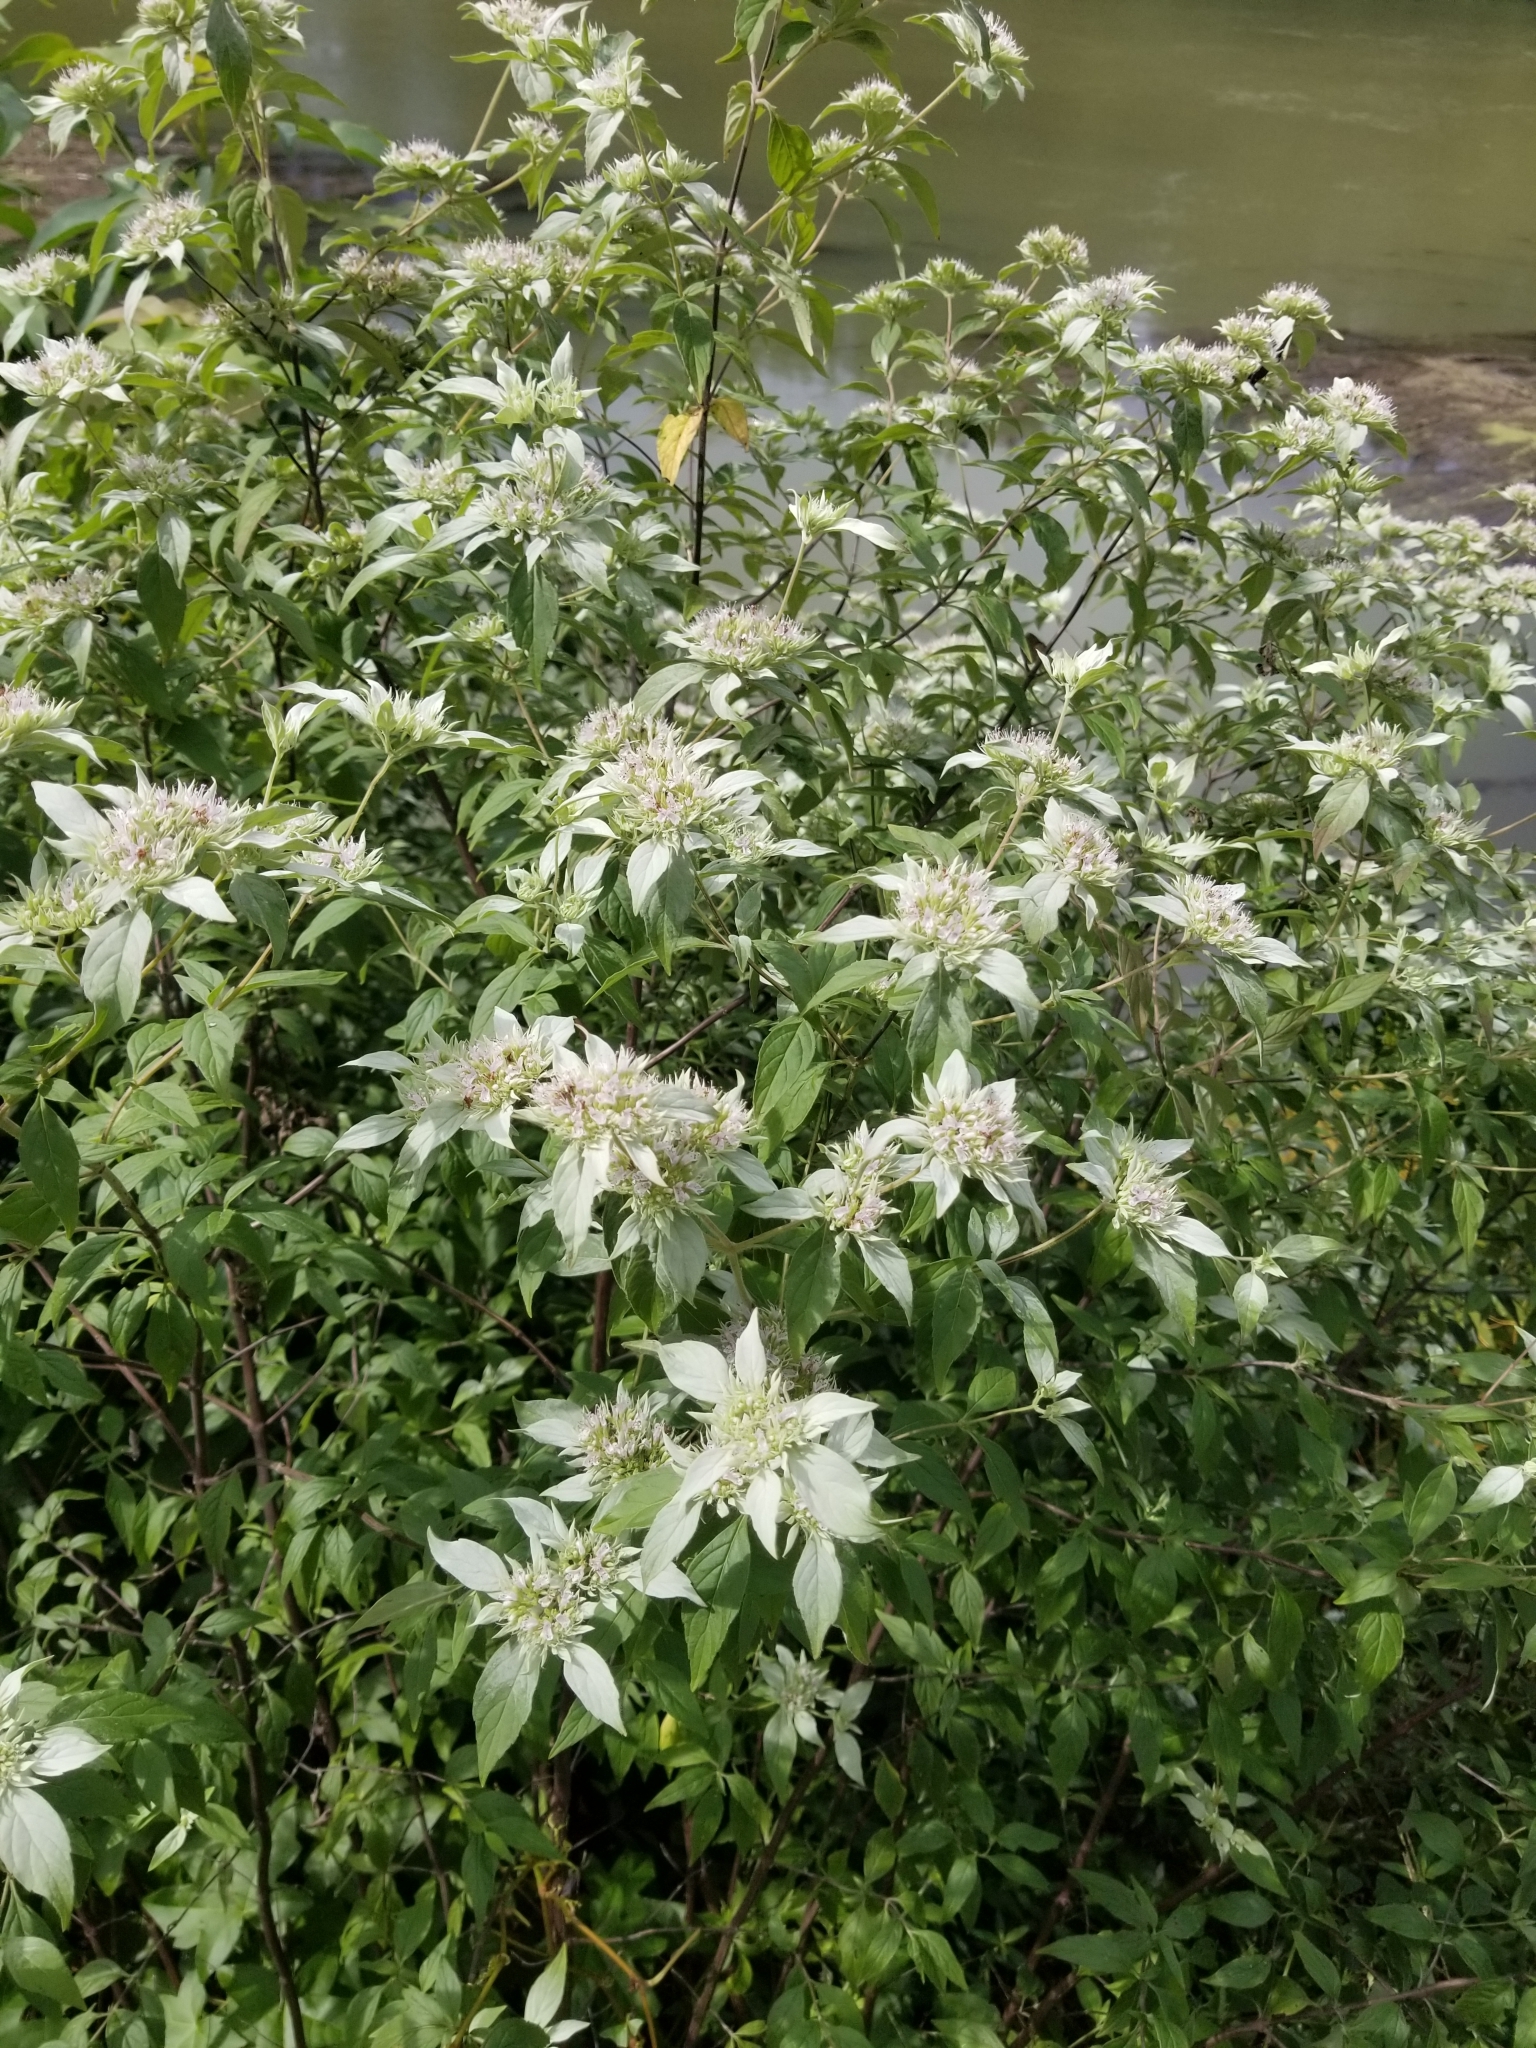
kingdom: Plantae
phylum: Tracheophyta
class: Magnoliopsida
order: Lamiales
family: Lamiaceae
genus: Pycnanthemum
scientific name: Pycnanthemum albescens
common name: White-leaf mountain-mint
